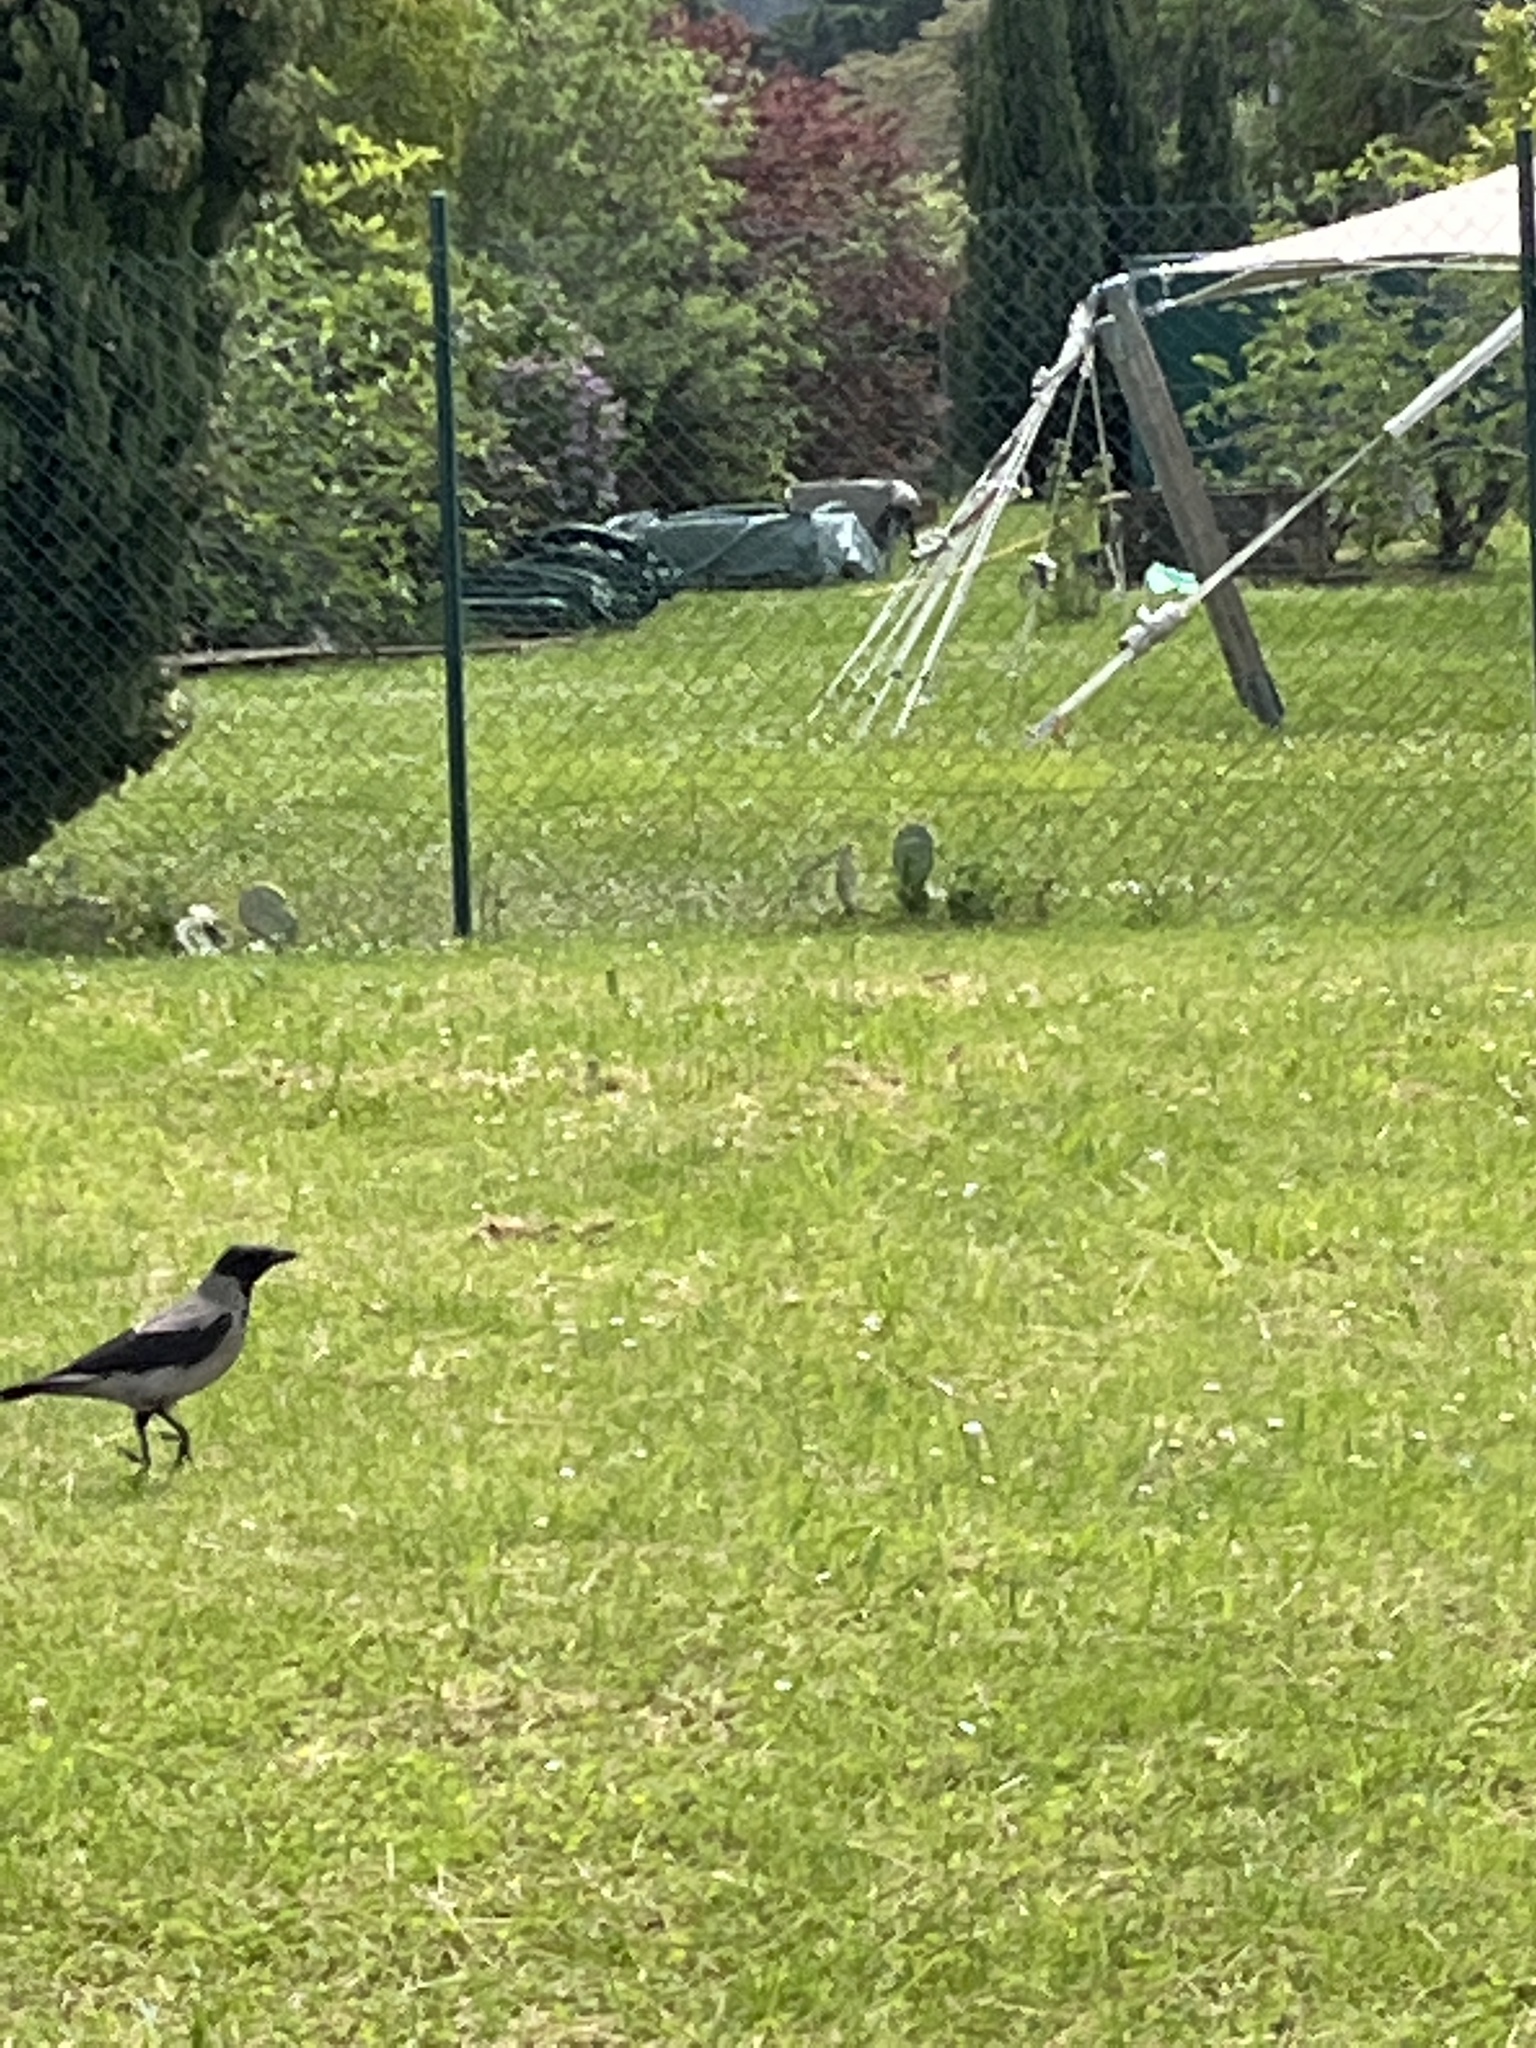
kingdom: Animalia
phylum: Chordata
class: Aves
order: Passeriformes
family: Corvidae
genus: Corvus
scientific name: Corvus cornix
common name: Hooded crow
